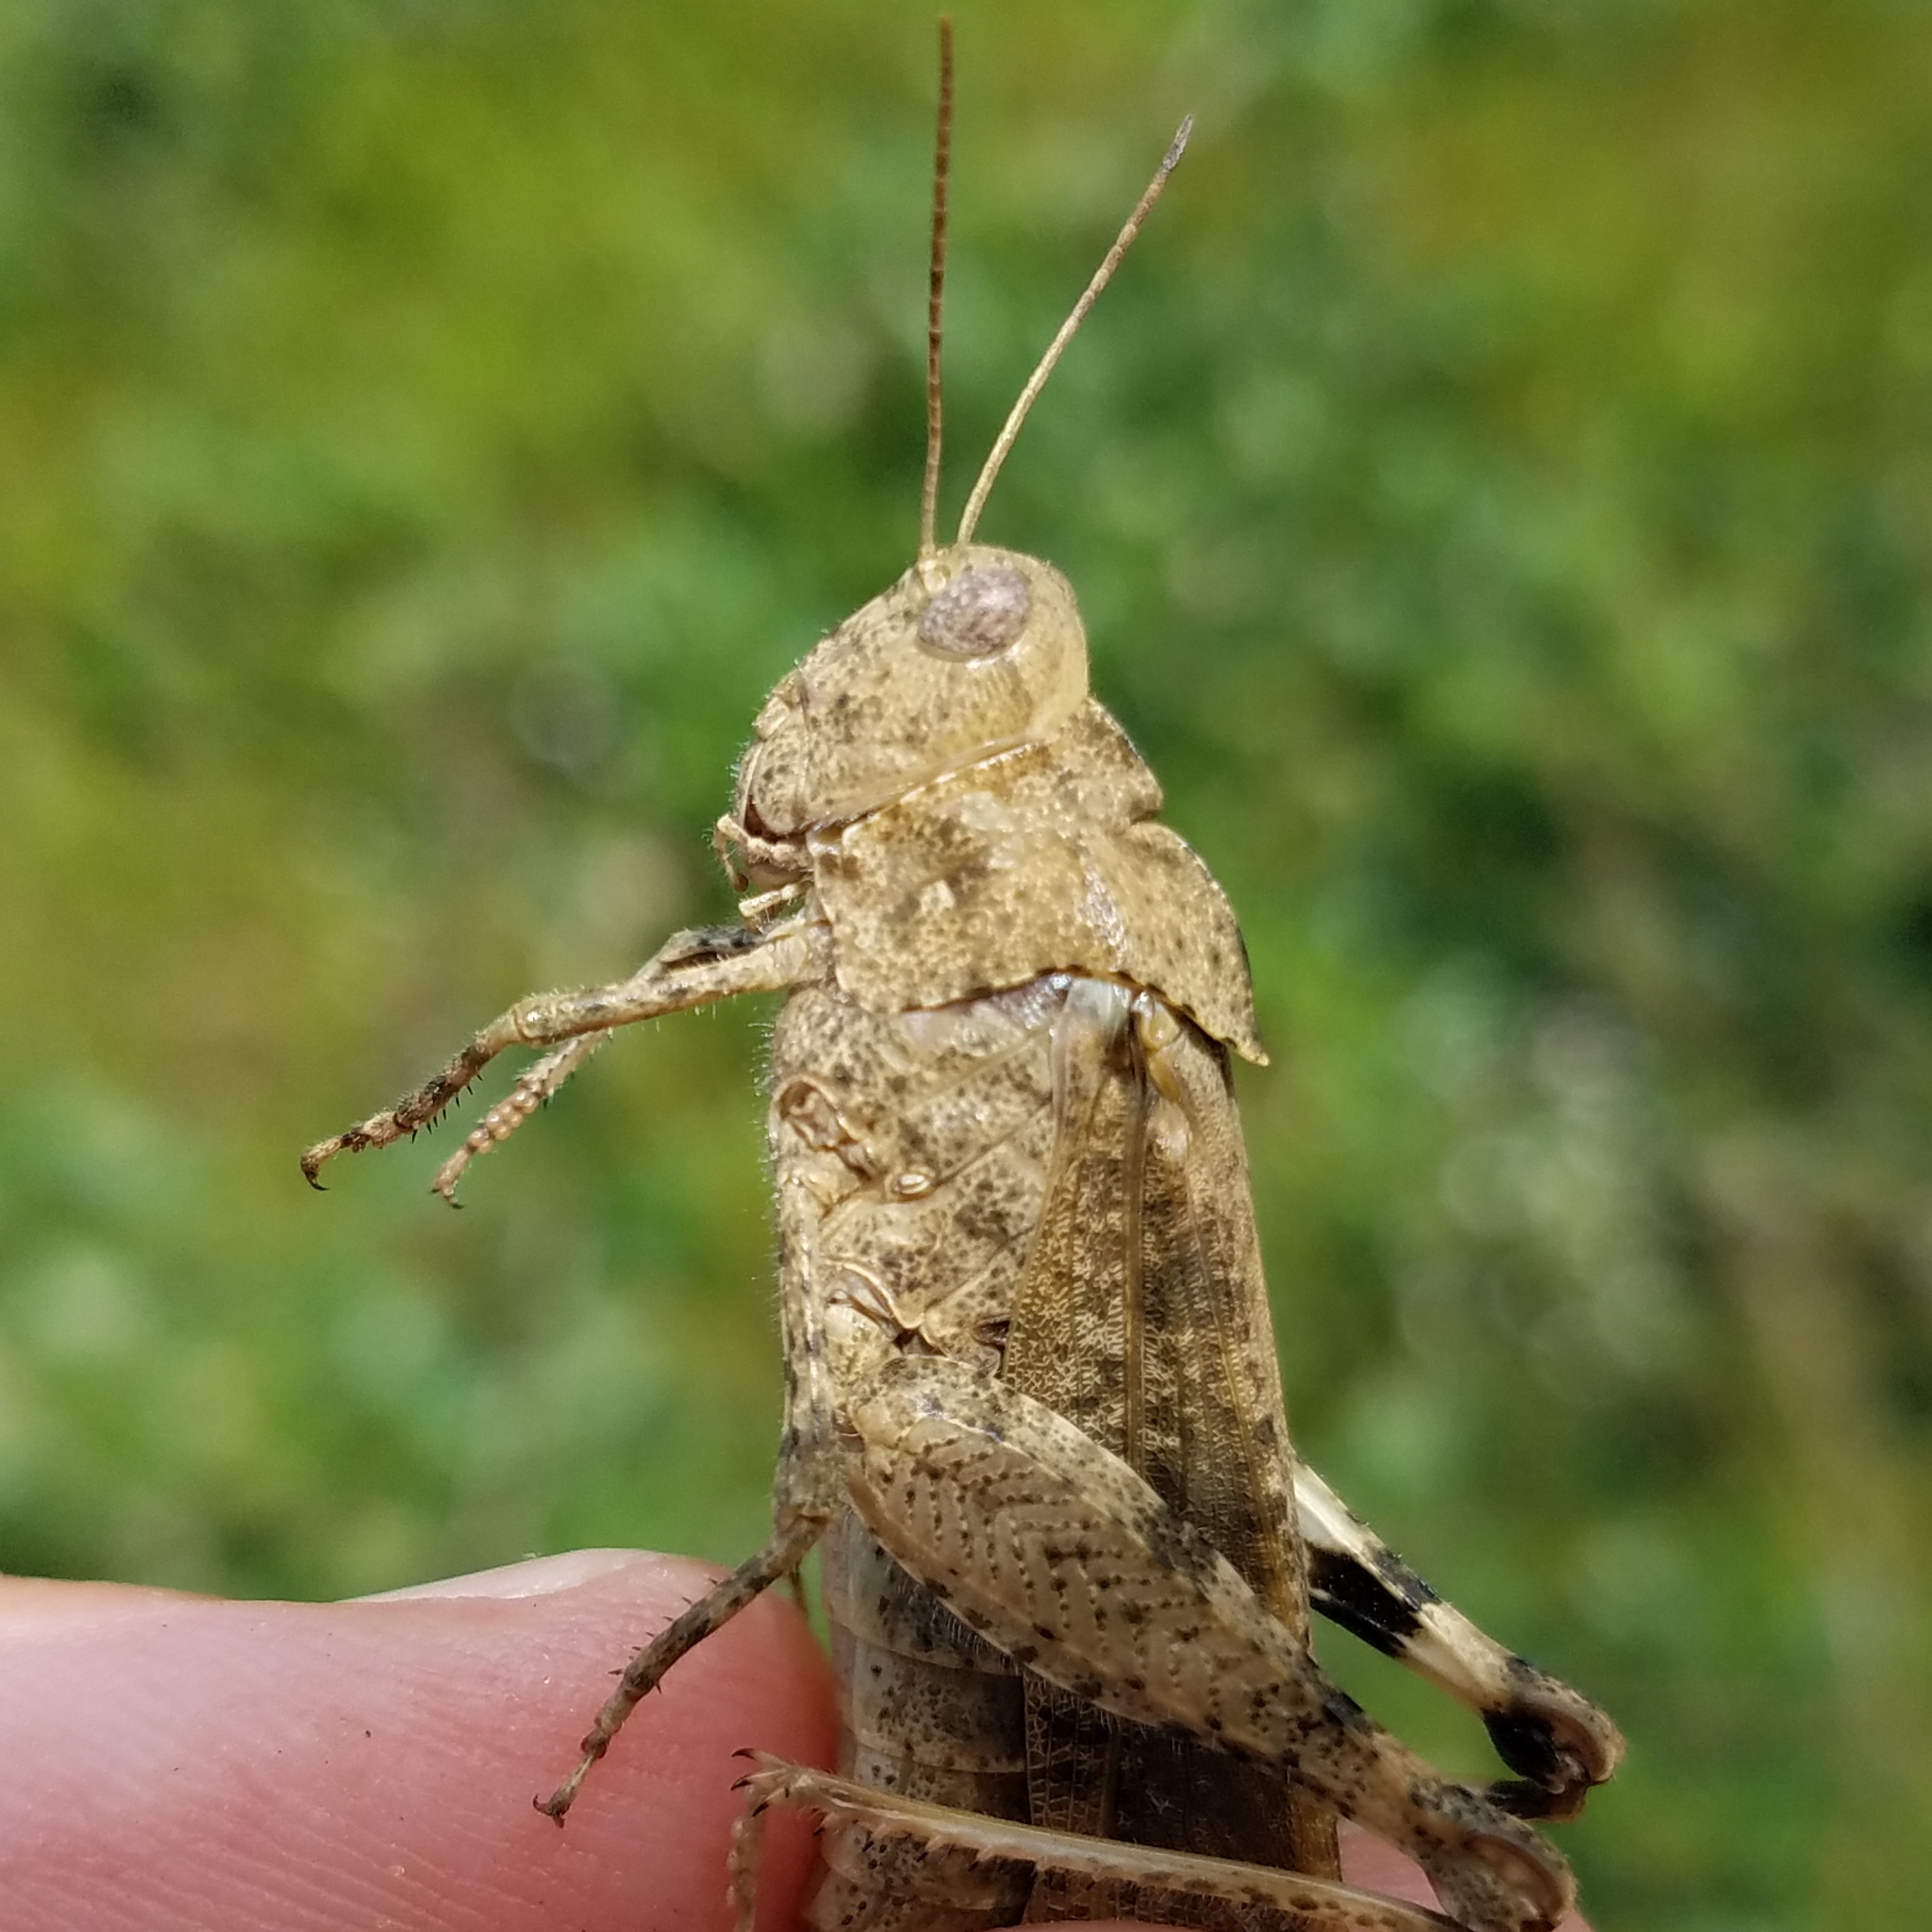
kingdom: Animalia
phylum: Arthropoda
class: Insecta
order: Orthoptera
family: Acrididae
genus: Dissosteira
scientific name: Dissosteira carolina
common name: Carolina grasshopper
